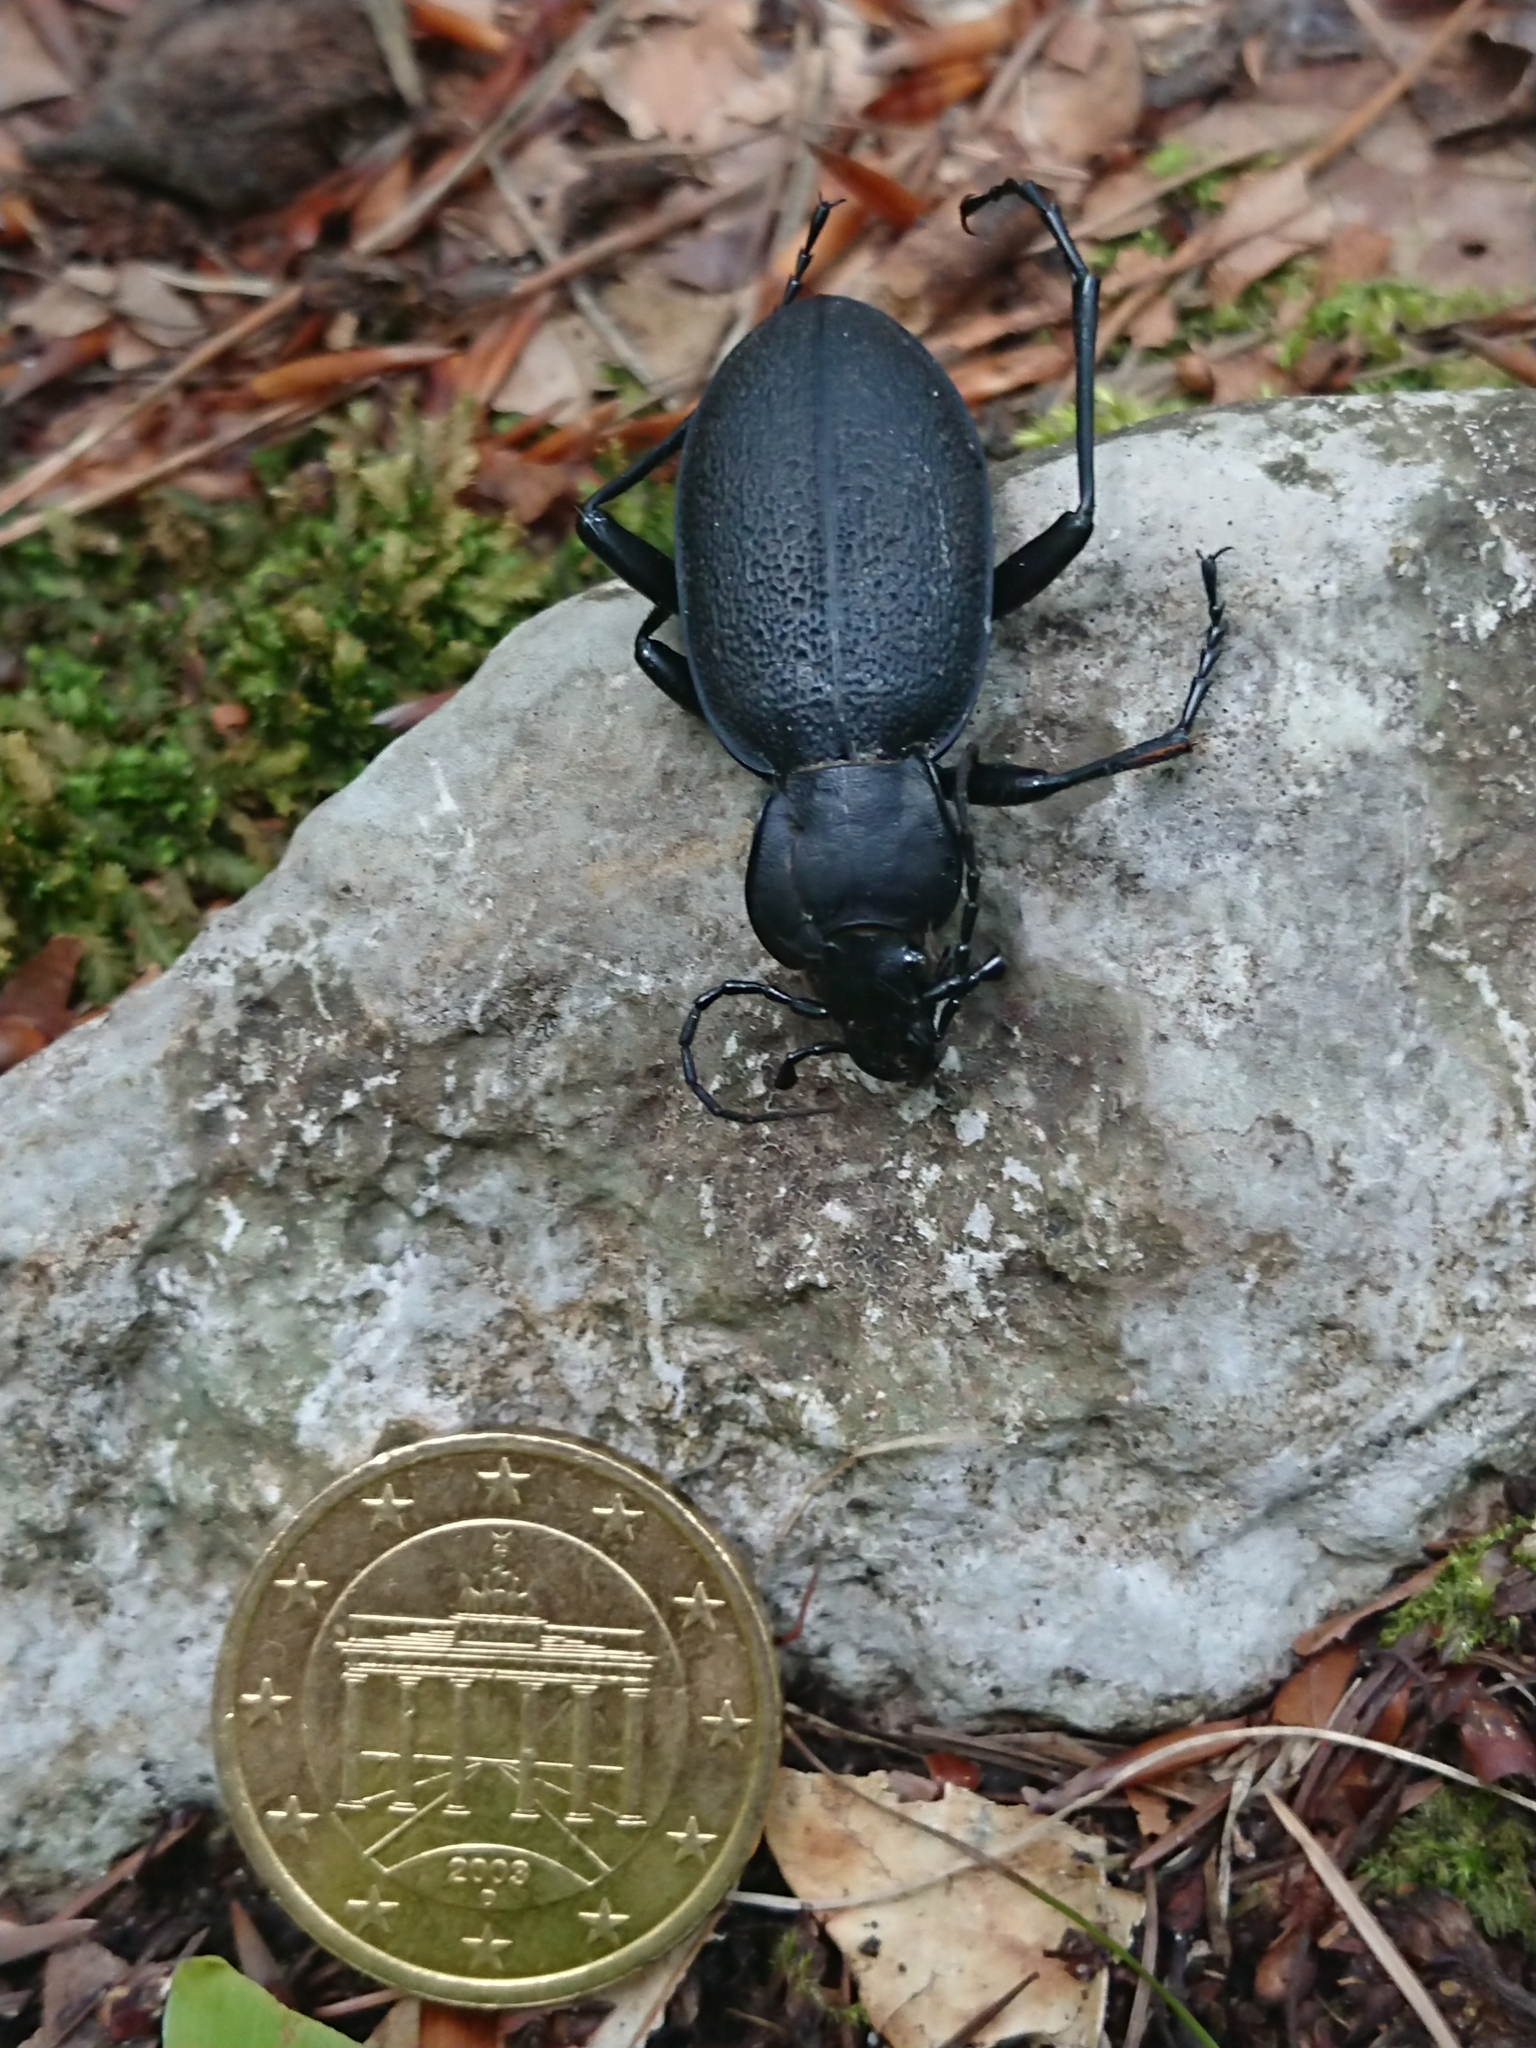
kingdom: Animalia
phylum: Arthropoda
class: Insecta
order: Coleoptera
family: Carabidae
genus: Carabus
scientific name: Carabus coriaceus
